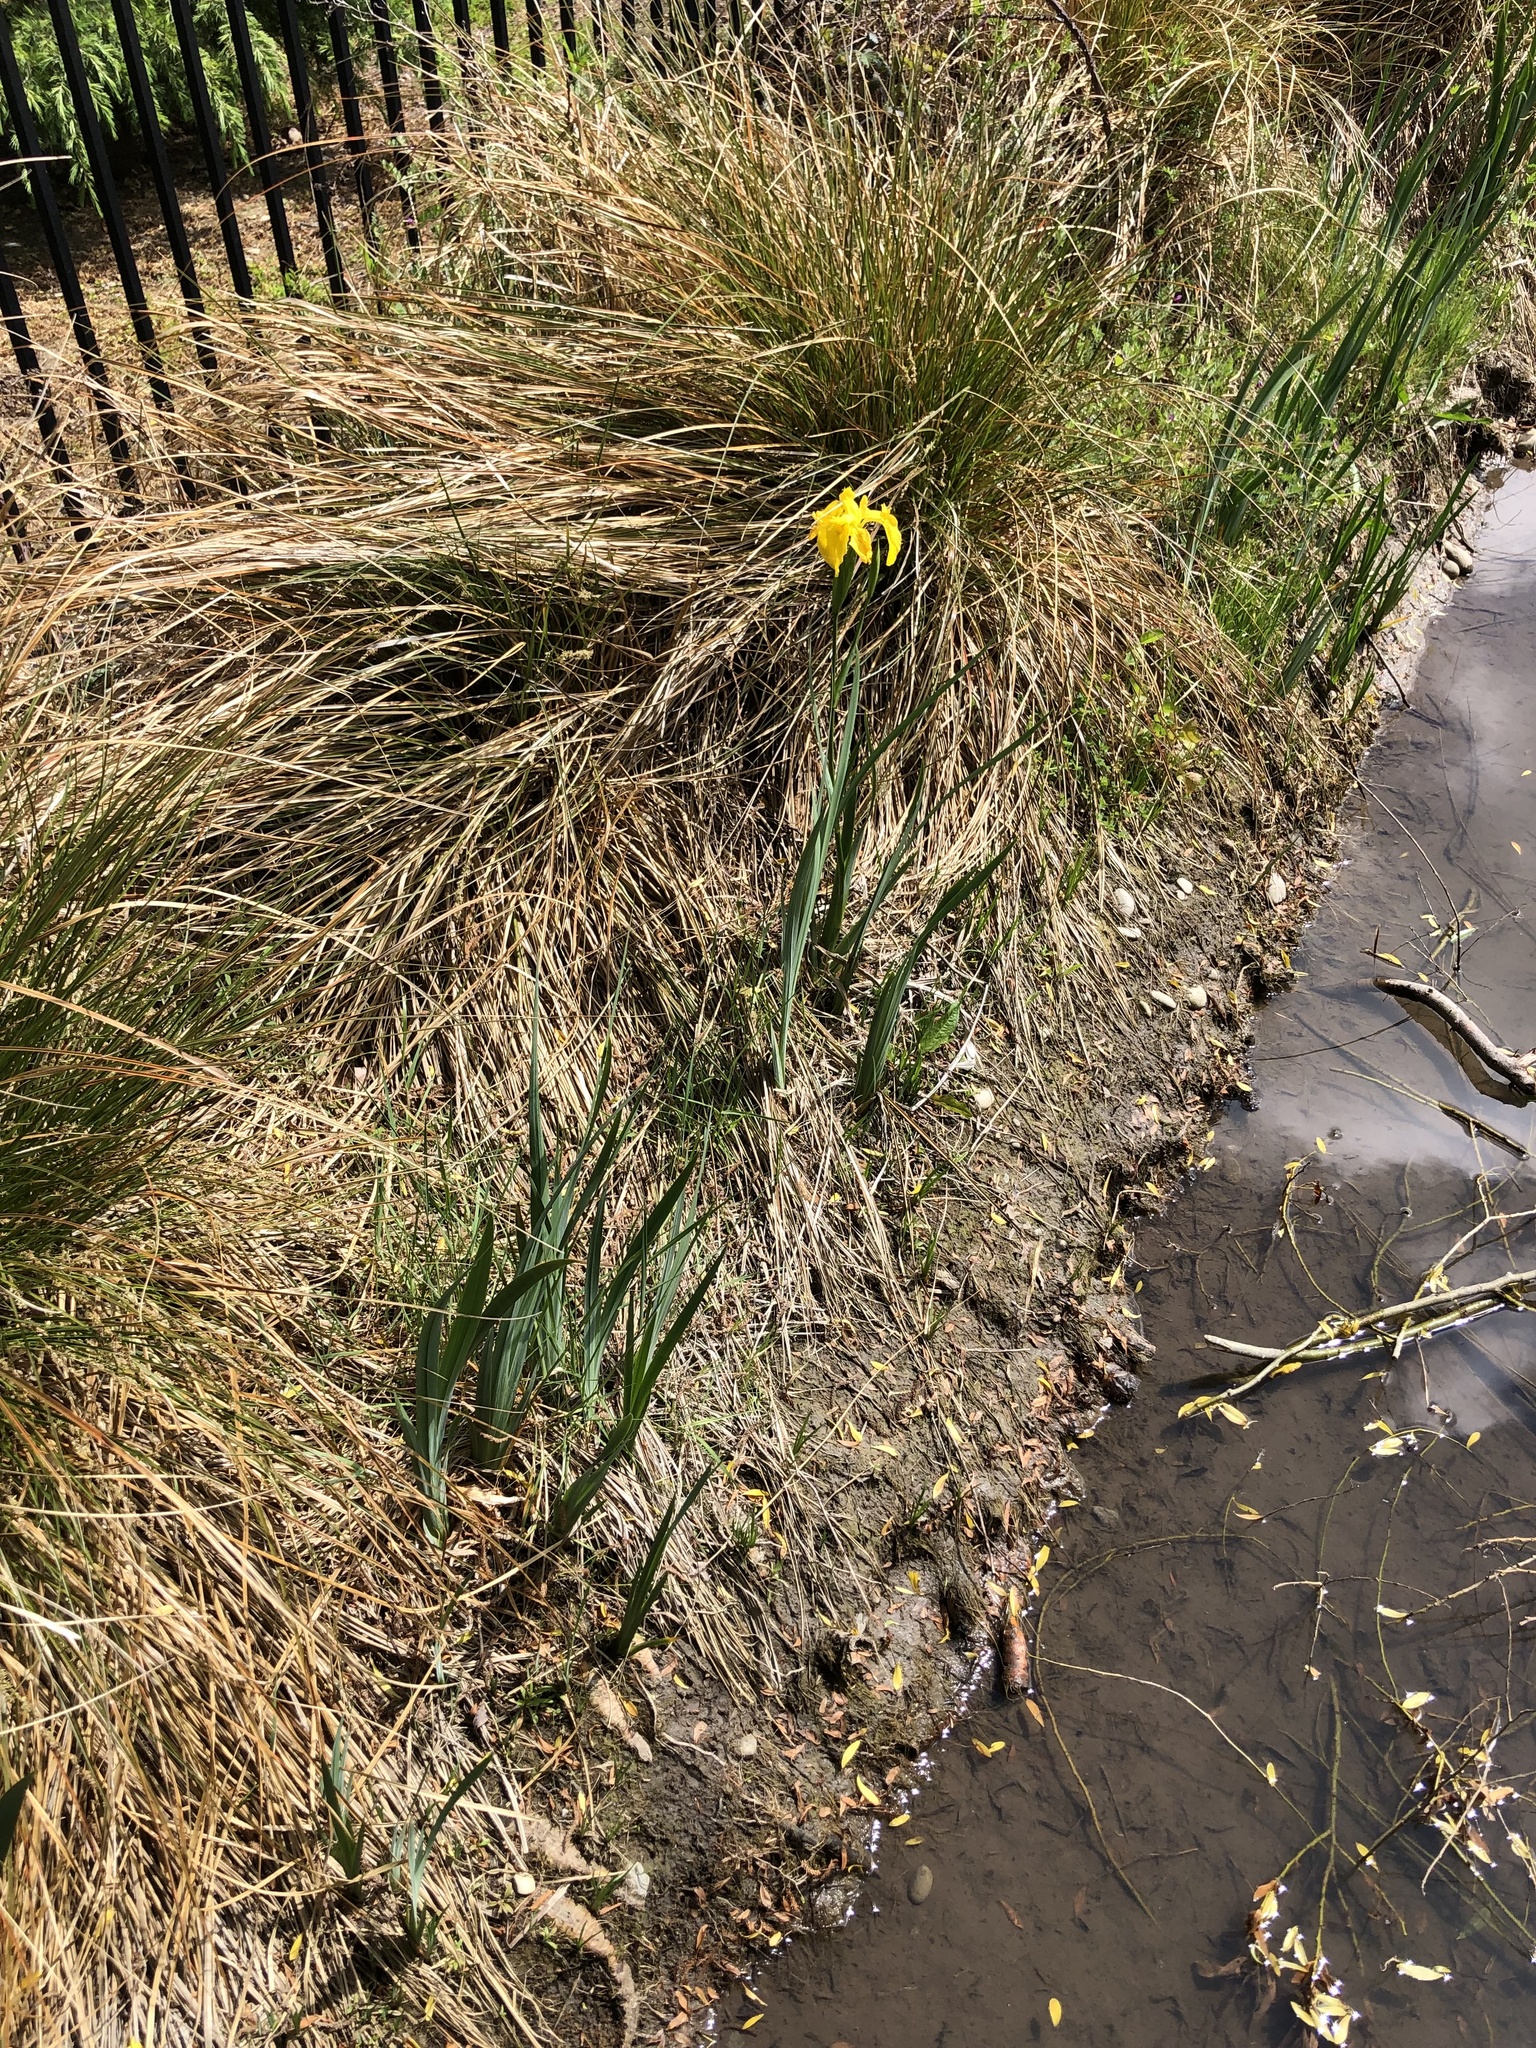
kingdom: Plantae
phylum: Tracheophyta
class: Liliopsida
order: Asparagales
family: Iridaceae
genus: Iris
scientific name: Iris pseudacorus
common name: Yellow flag
